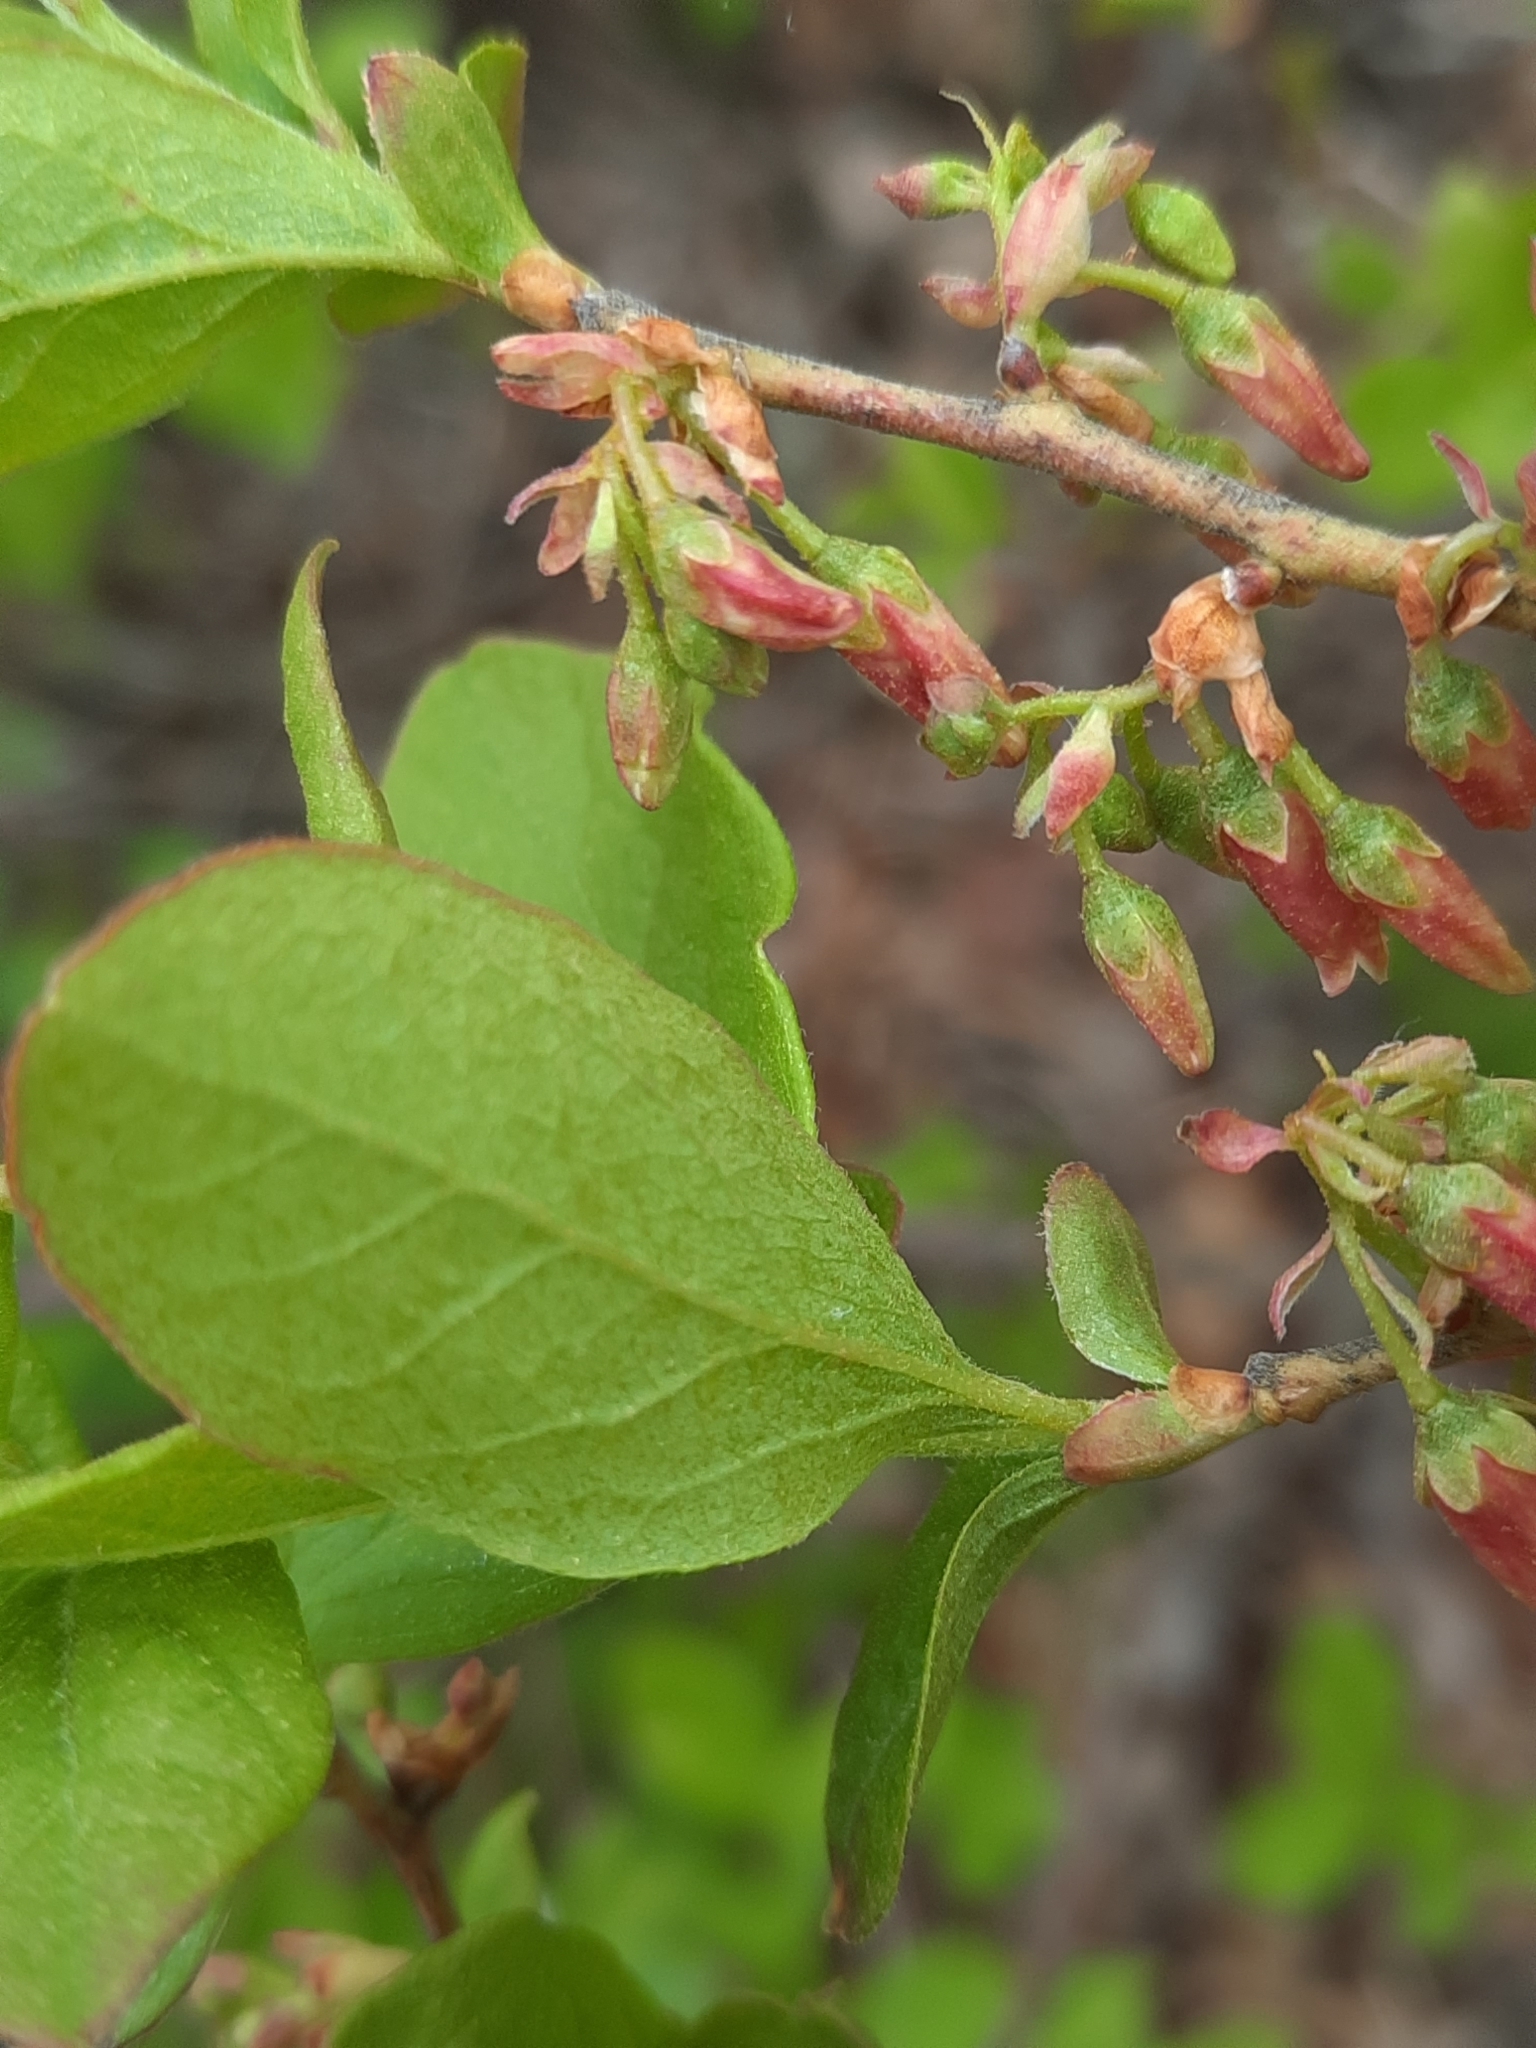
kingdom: Plantae
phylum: Tracheophyta
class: Magnoliopsida
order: Ericales
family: Ericaceae
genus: Gaylussacia
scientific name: Gaylussacia baccata
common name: Black huckleberry
